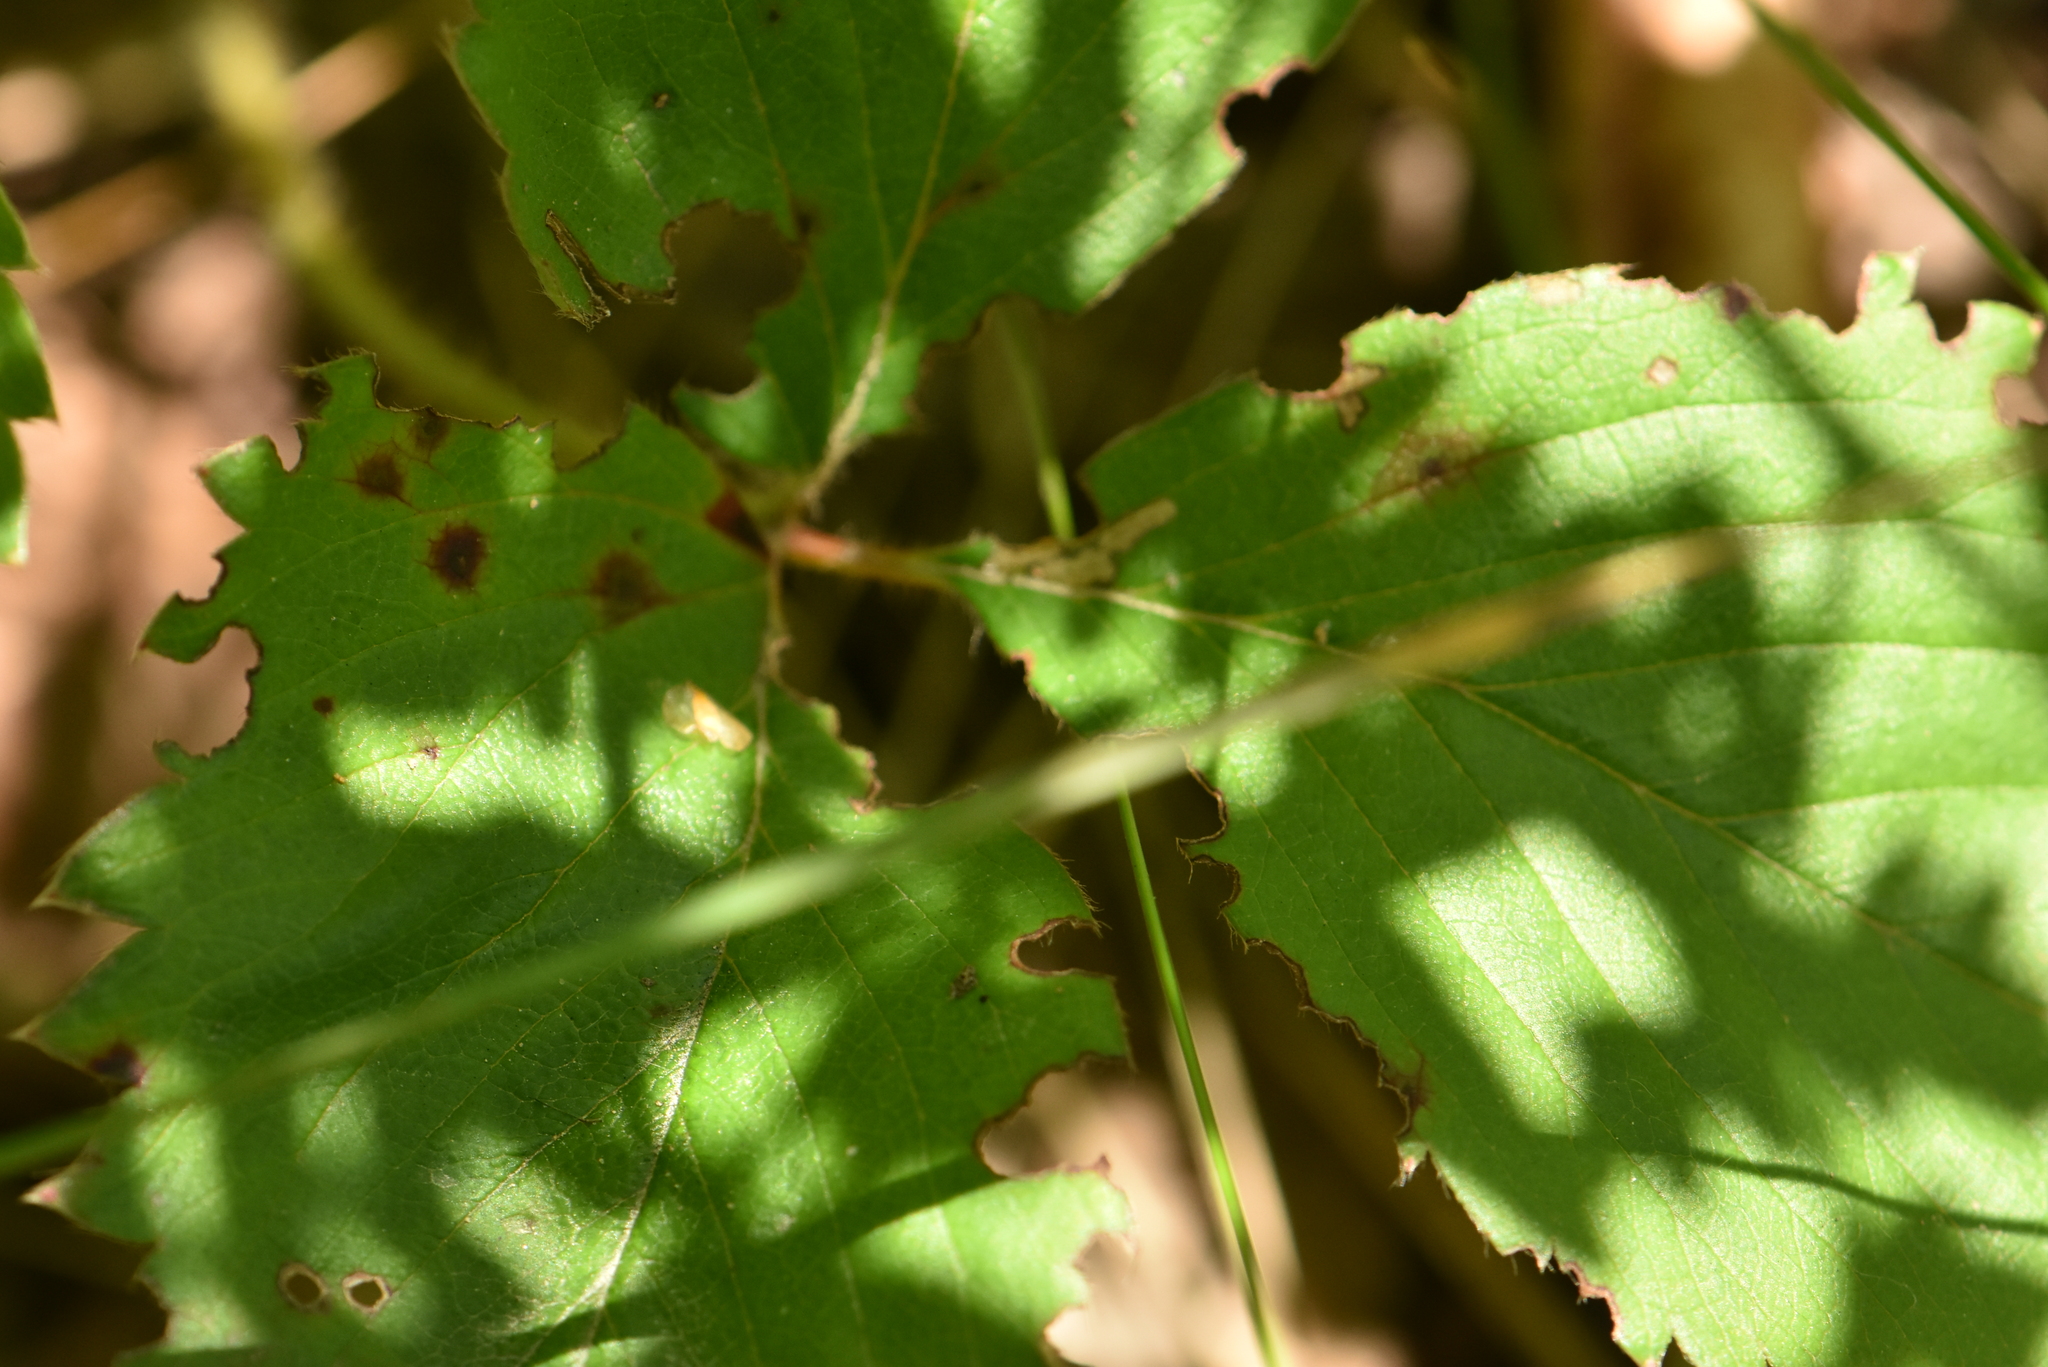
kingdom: Plantae
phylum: Tracheophyta
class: Magnoliopsida
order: Rosales
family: Rosaceae
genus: Fragaria
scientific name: Fragaria viridis
